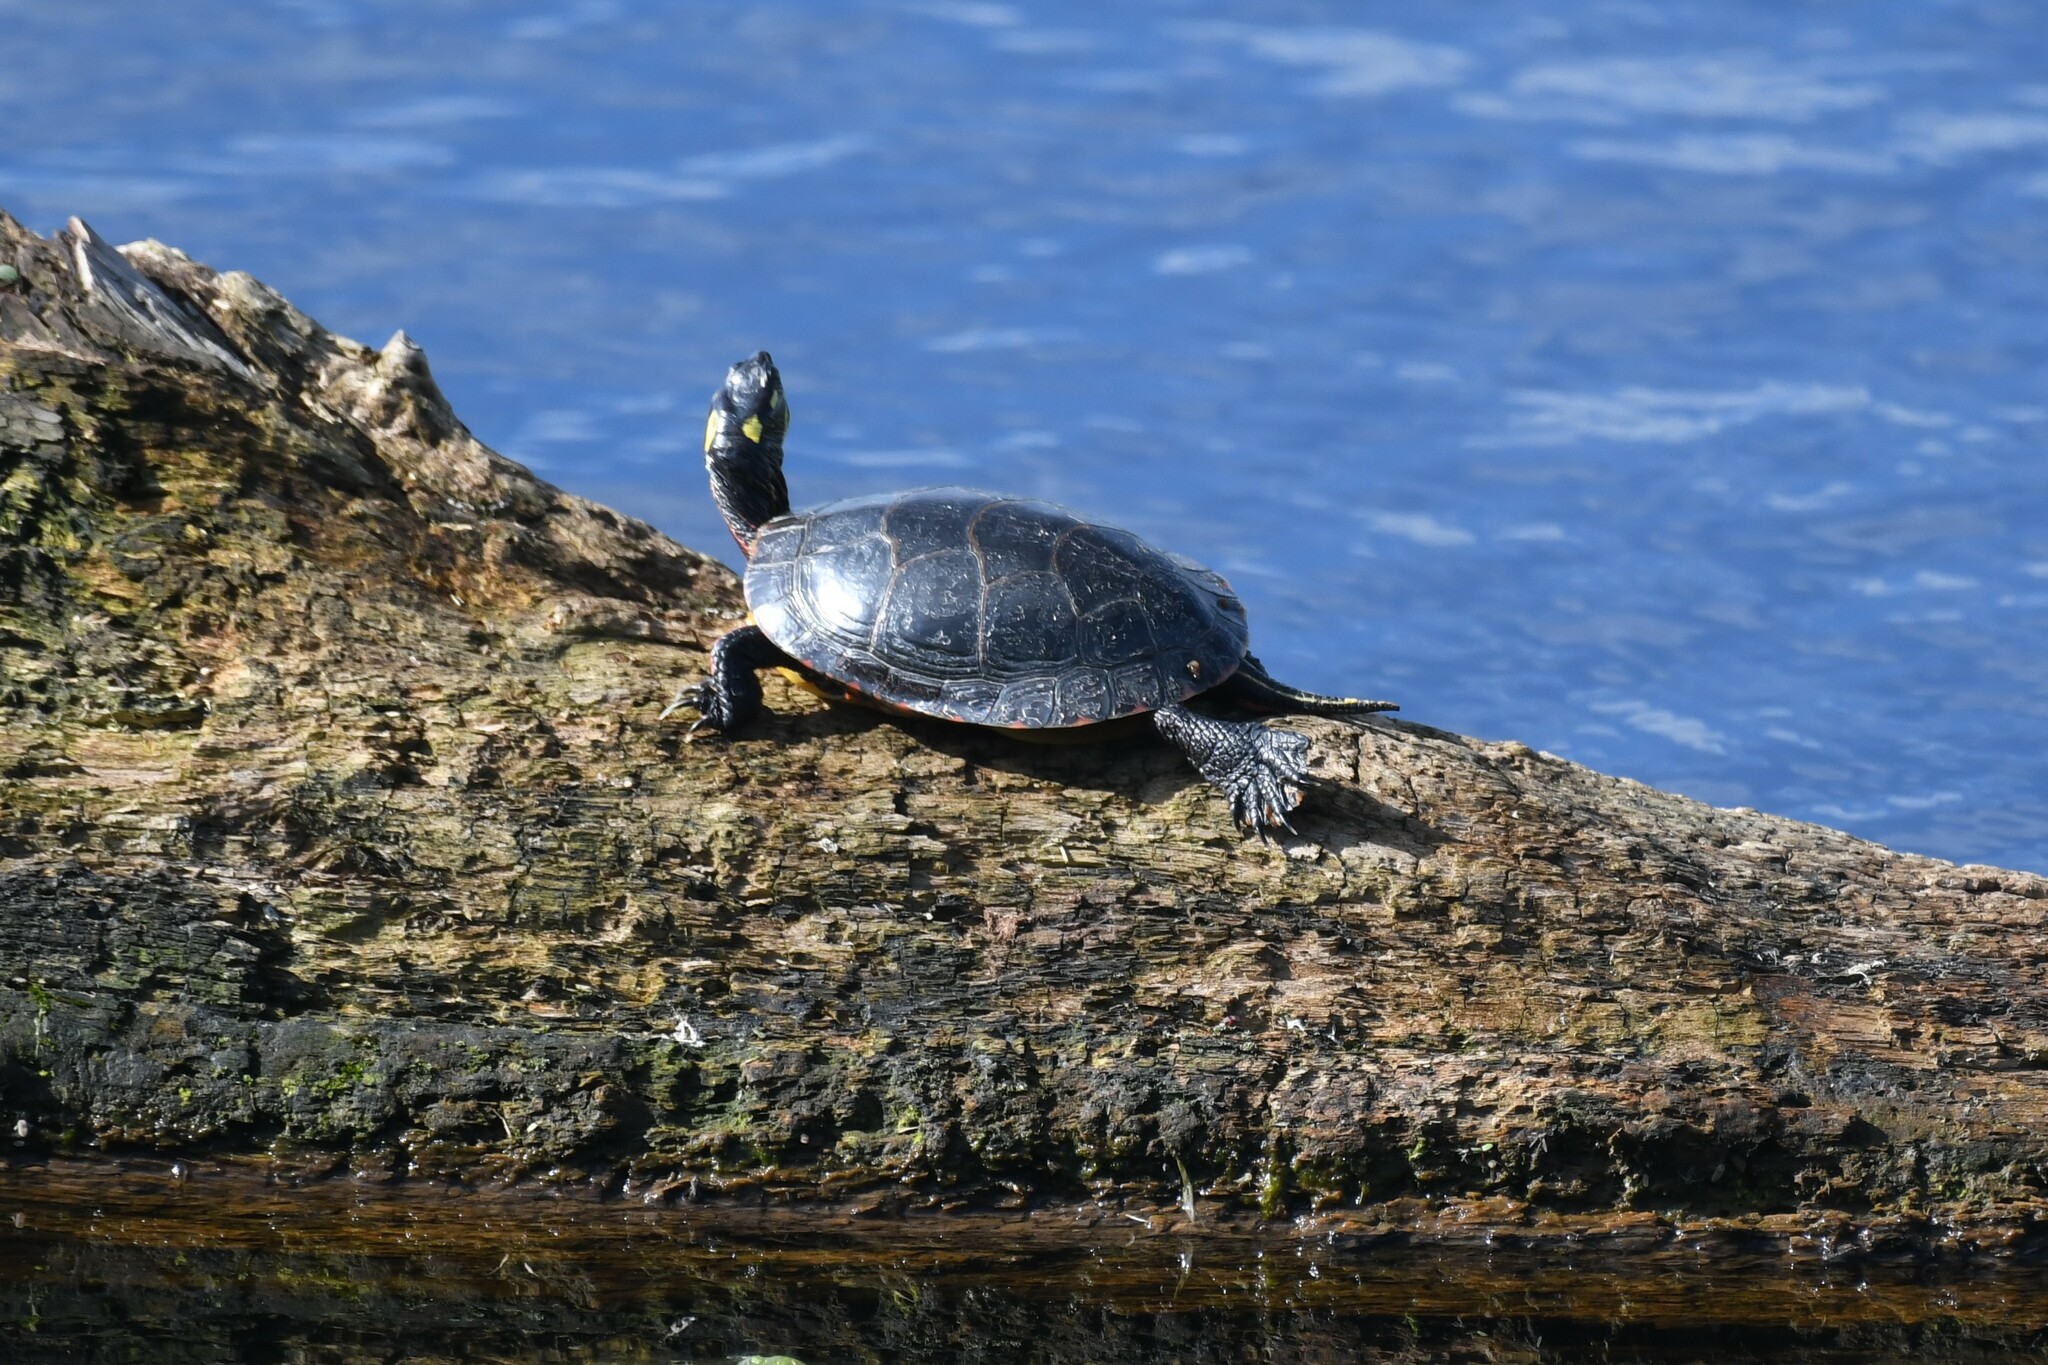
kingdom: Animalia
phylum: Chordata
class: Testudines
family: Emydidae
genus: Chrysemys
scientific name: Chrysemys picta
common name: Painted turtle
